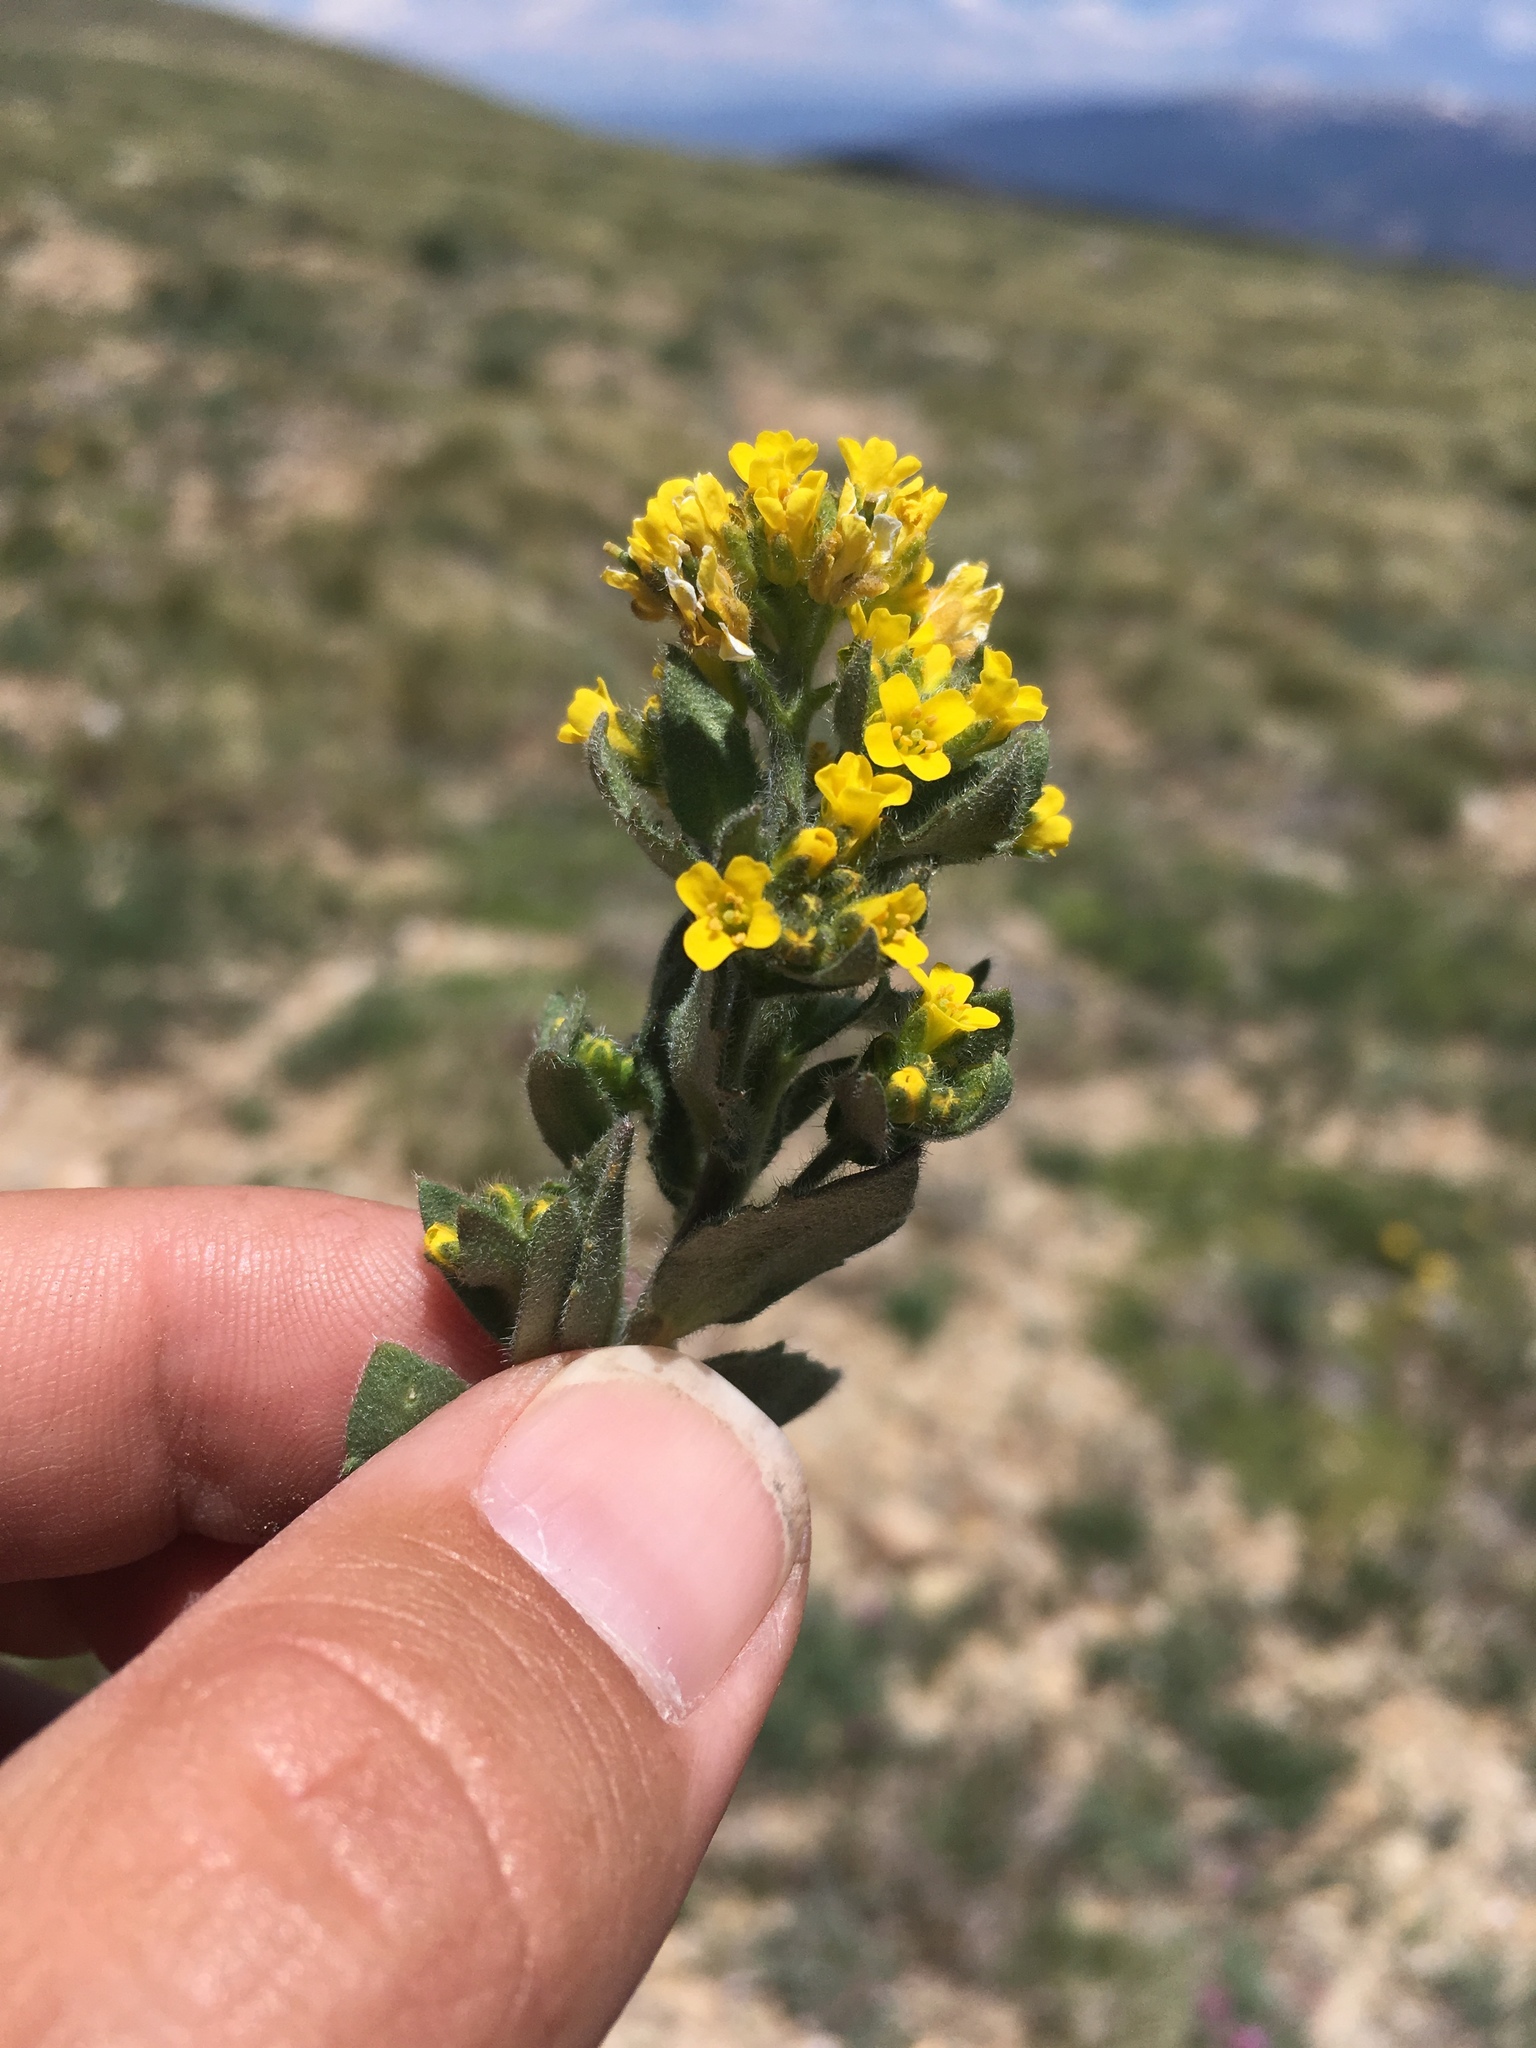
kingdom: Plantae
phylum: Tracheophyta
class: Magnoliopsida
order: Brassicales
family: Brassicaceae
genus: Draba
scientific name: Draba aurea
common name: Golden draba
